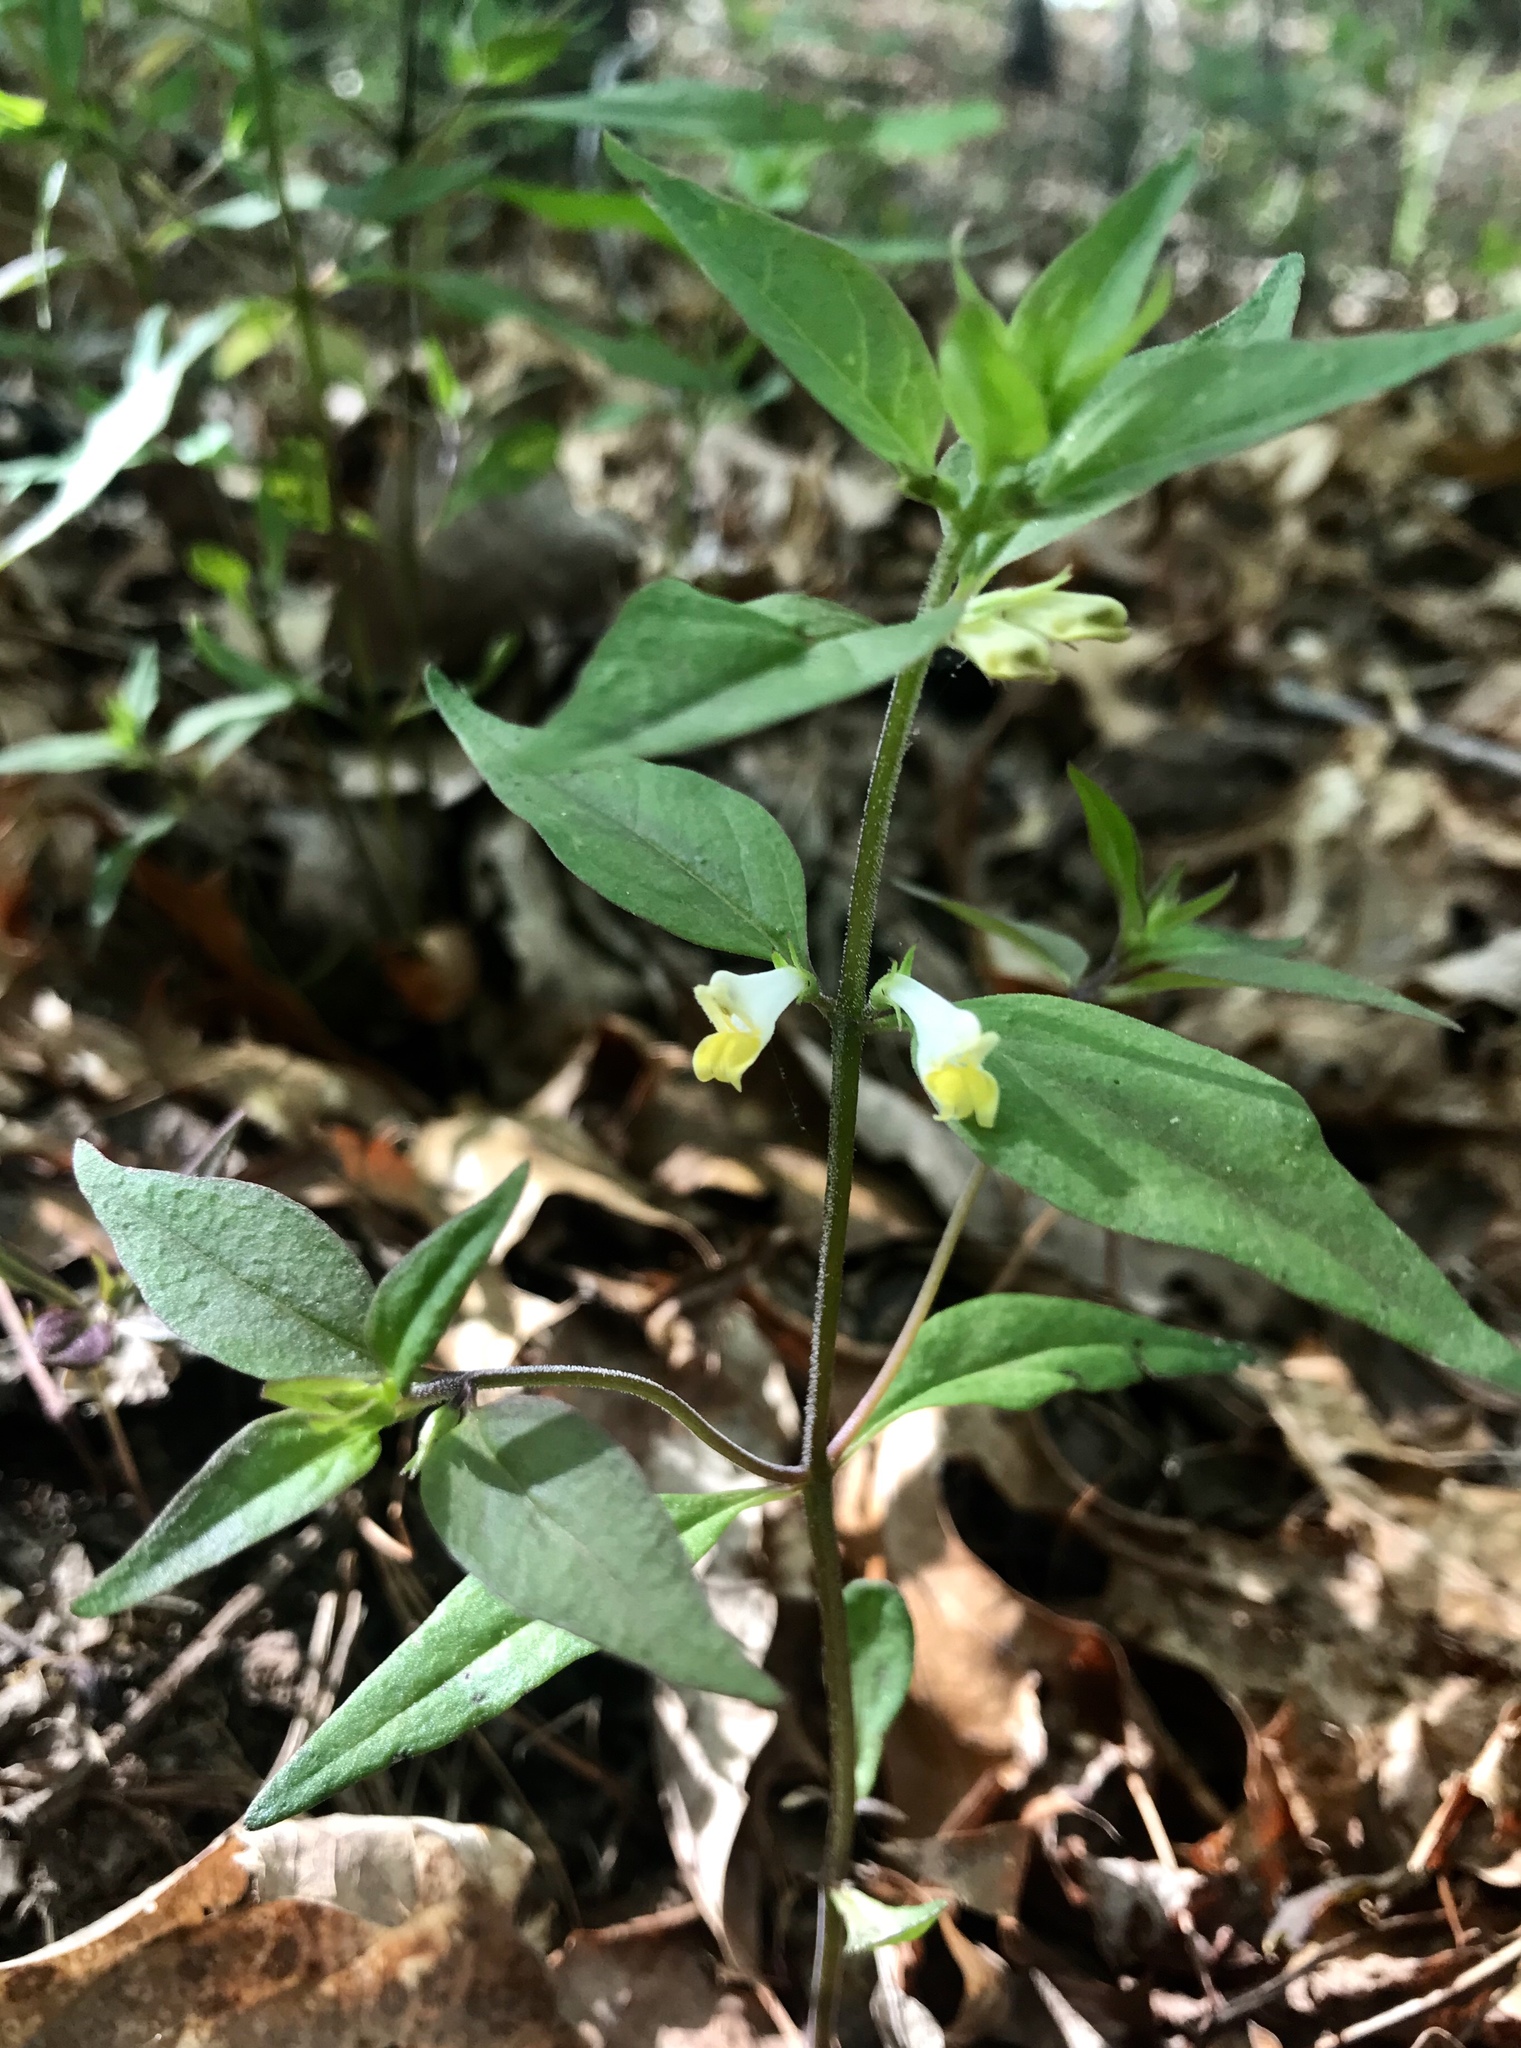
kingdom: Plantae
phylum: Tracheophyta
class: Magnoliopsida
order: Lamiales
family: Orobanchaceae
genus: Melampyrum
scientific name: Melampyrum lineare
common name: American cow-wheat
